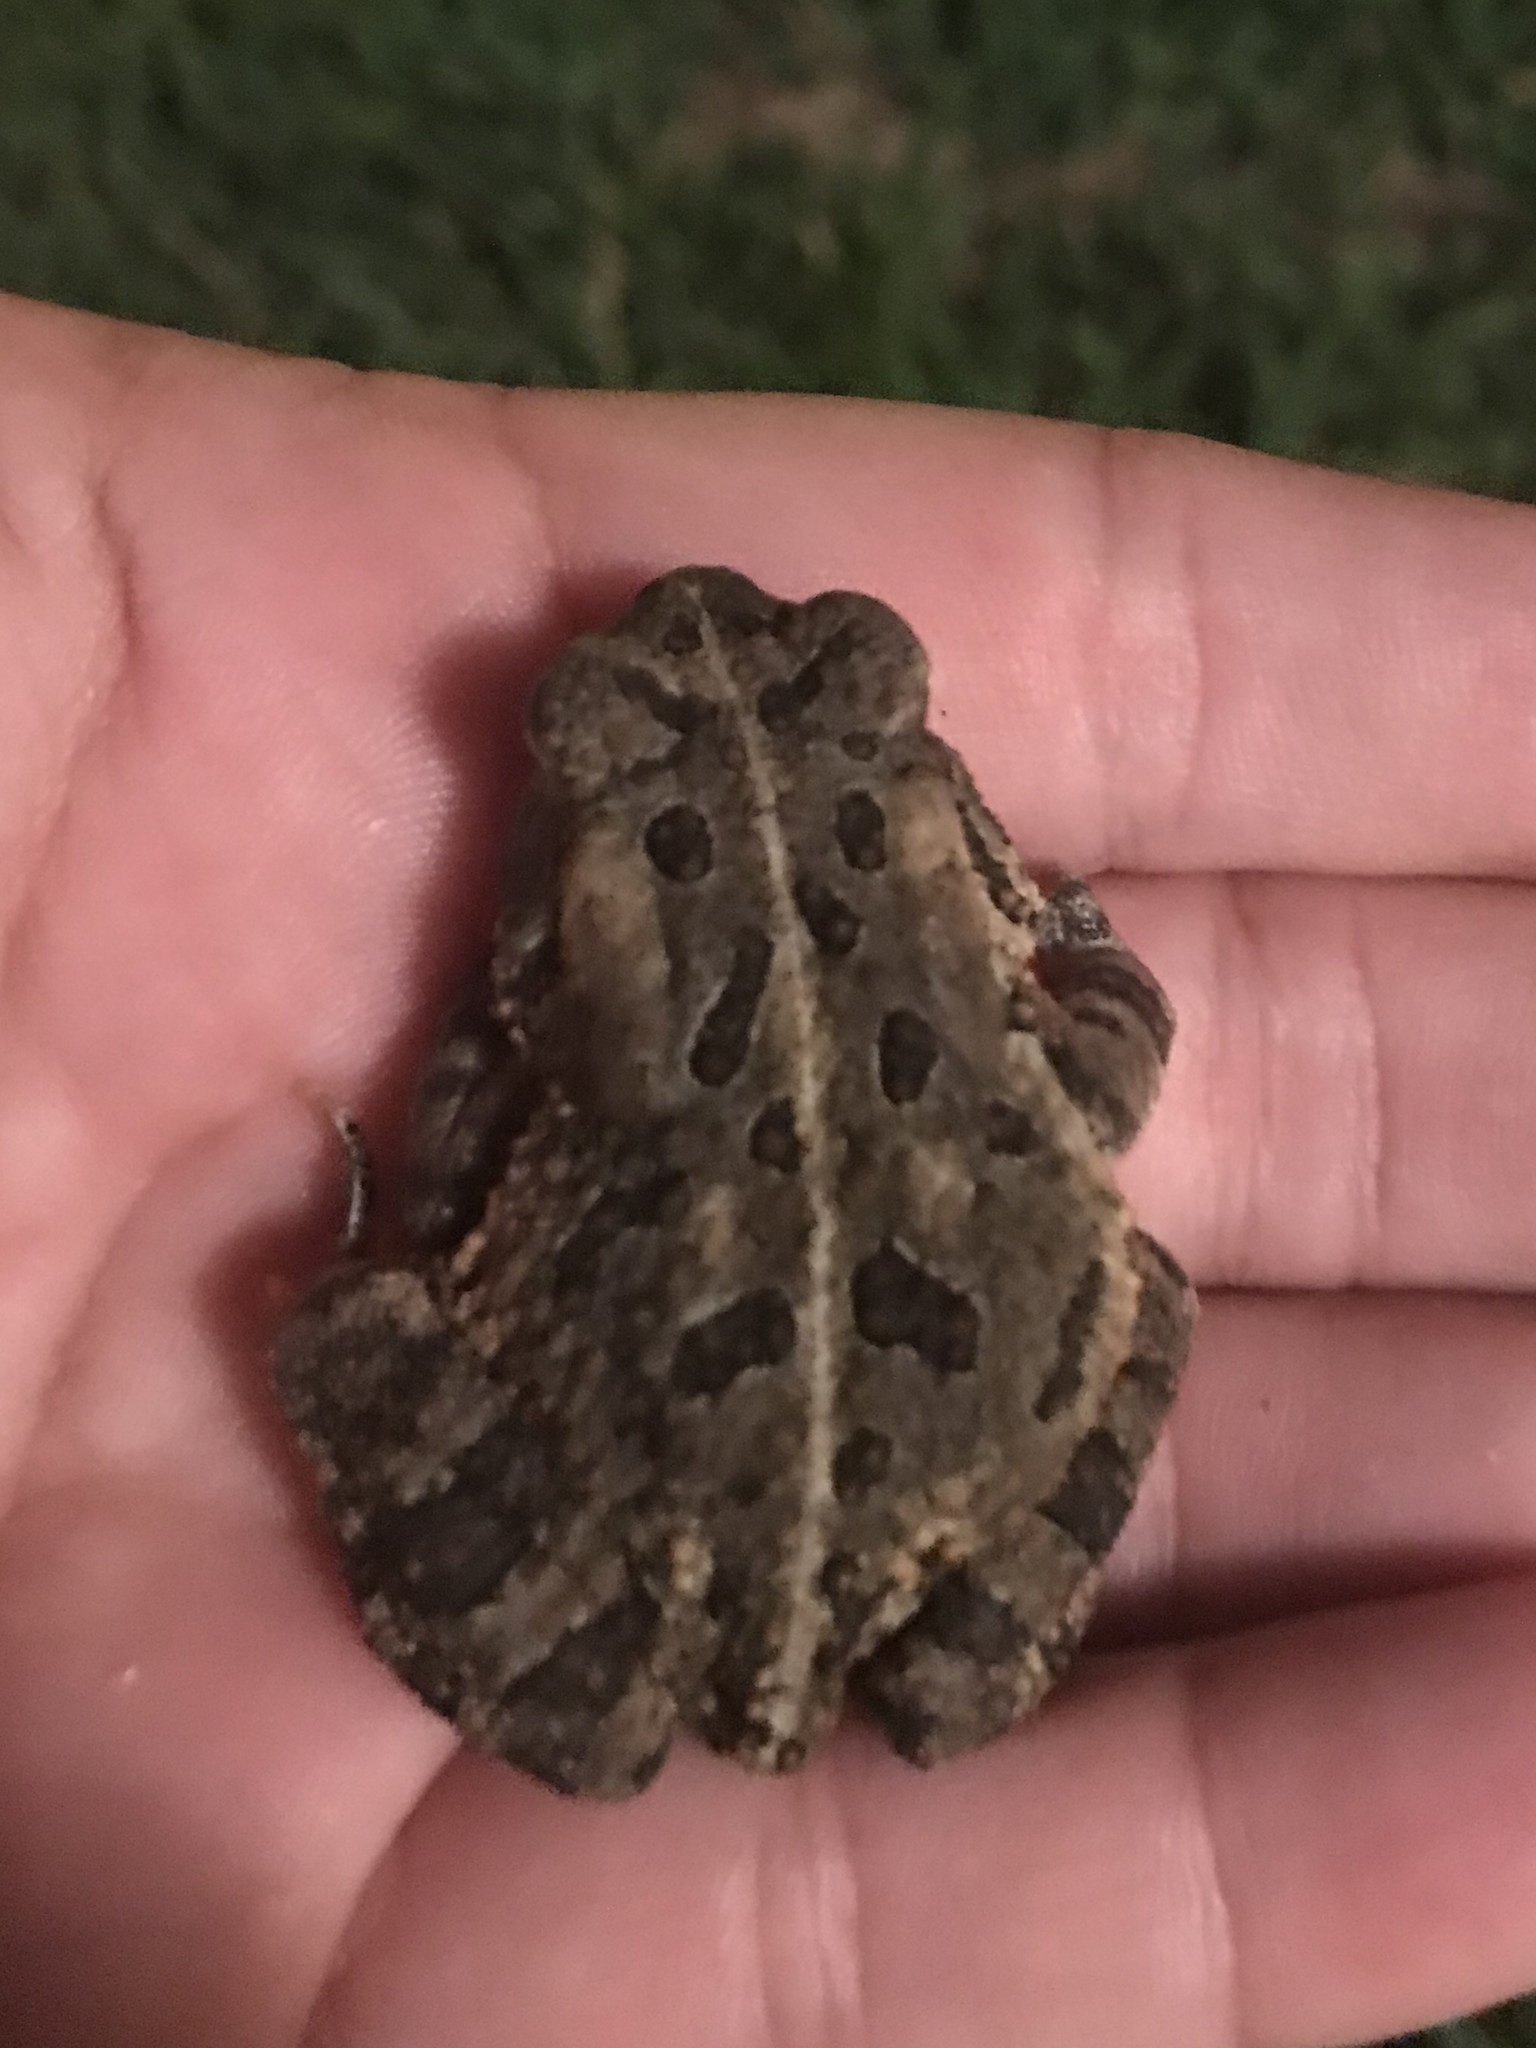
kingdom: Animalia
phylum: Chordata
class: Amphibia
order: Anura
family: Bufonidae
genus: Anaxyrus
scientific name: Anaxyrus fowleri
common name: Fowler's toad
